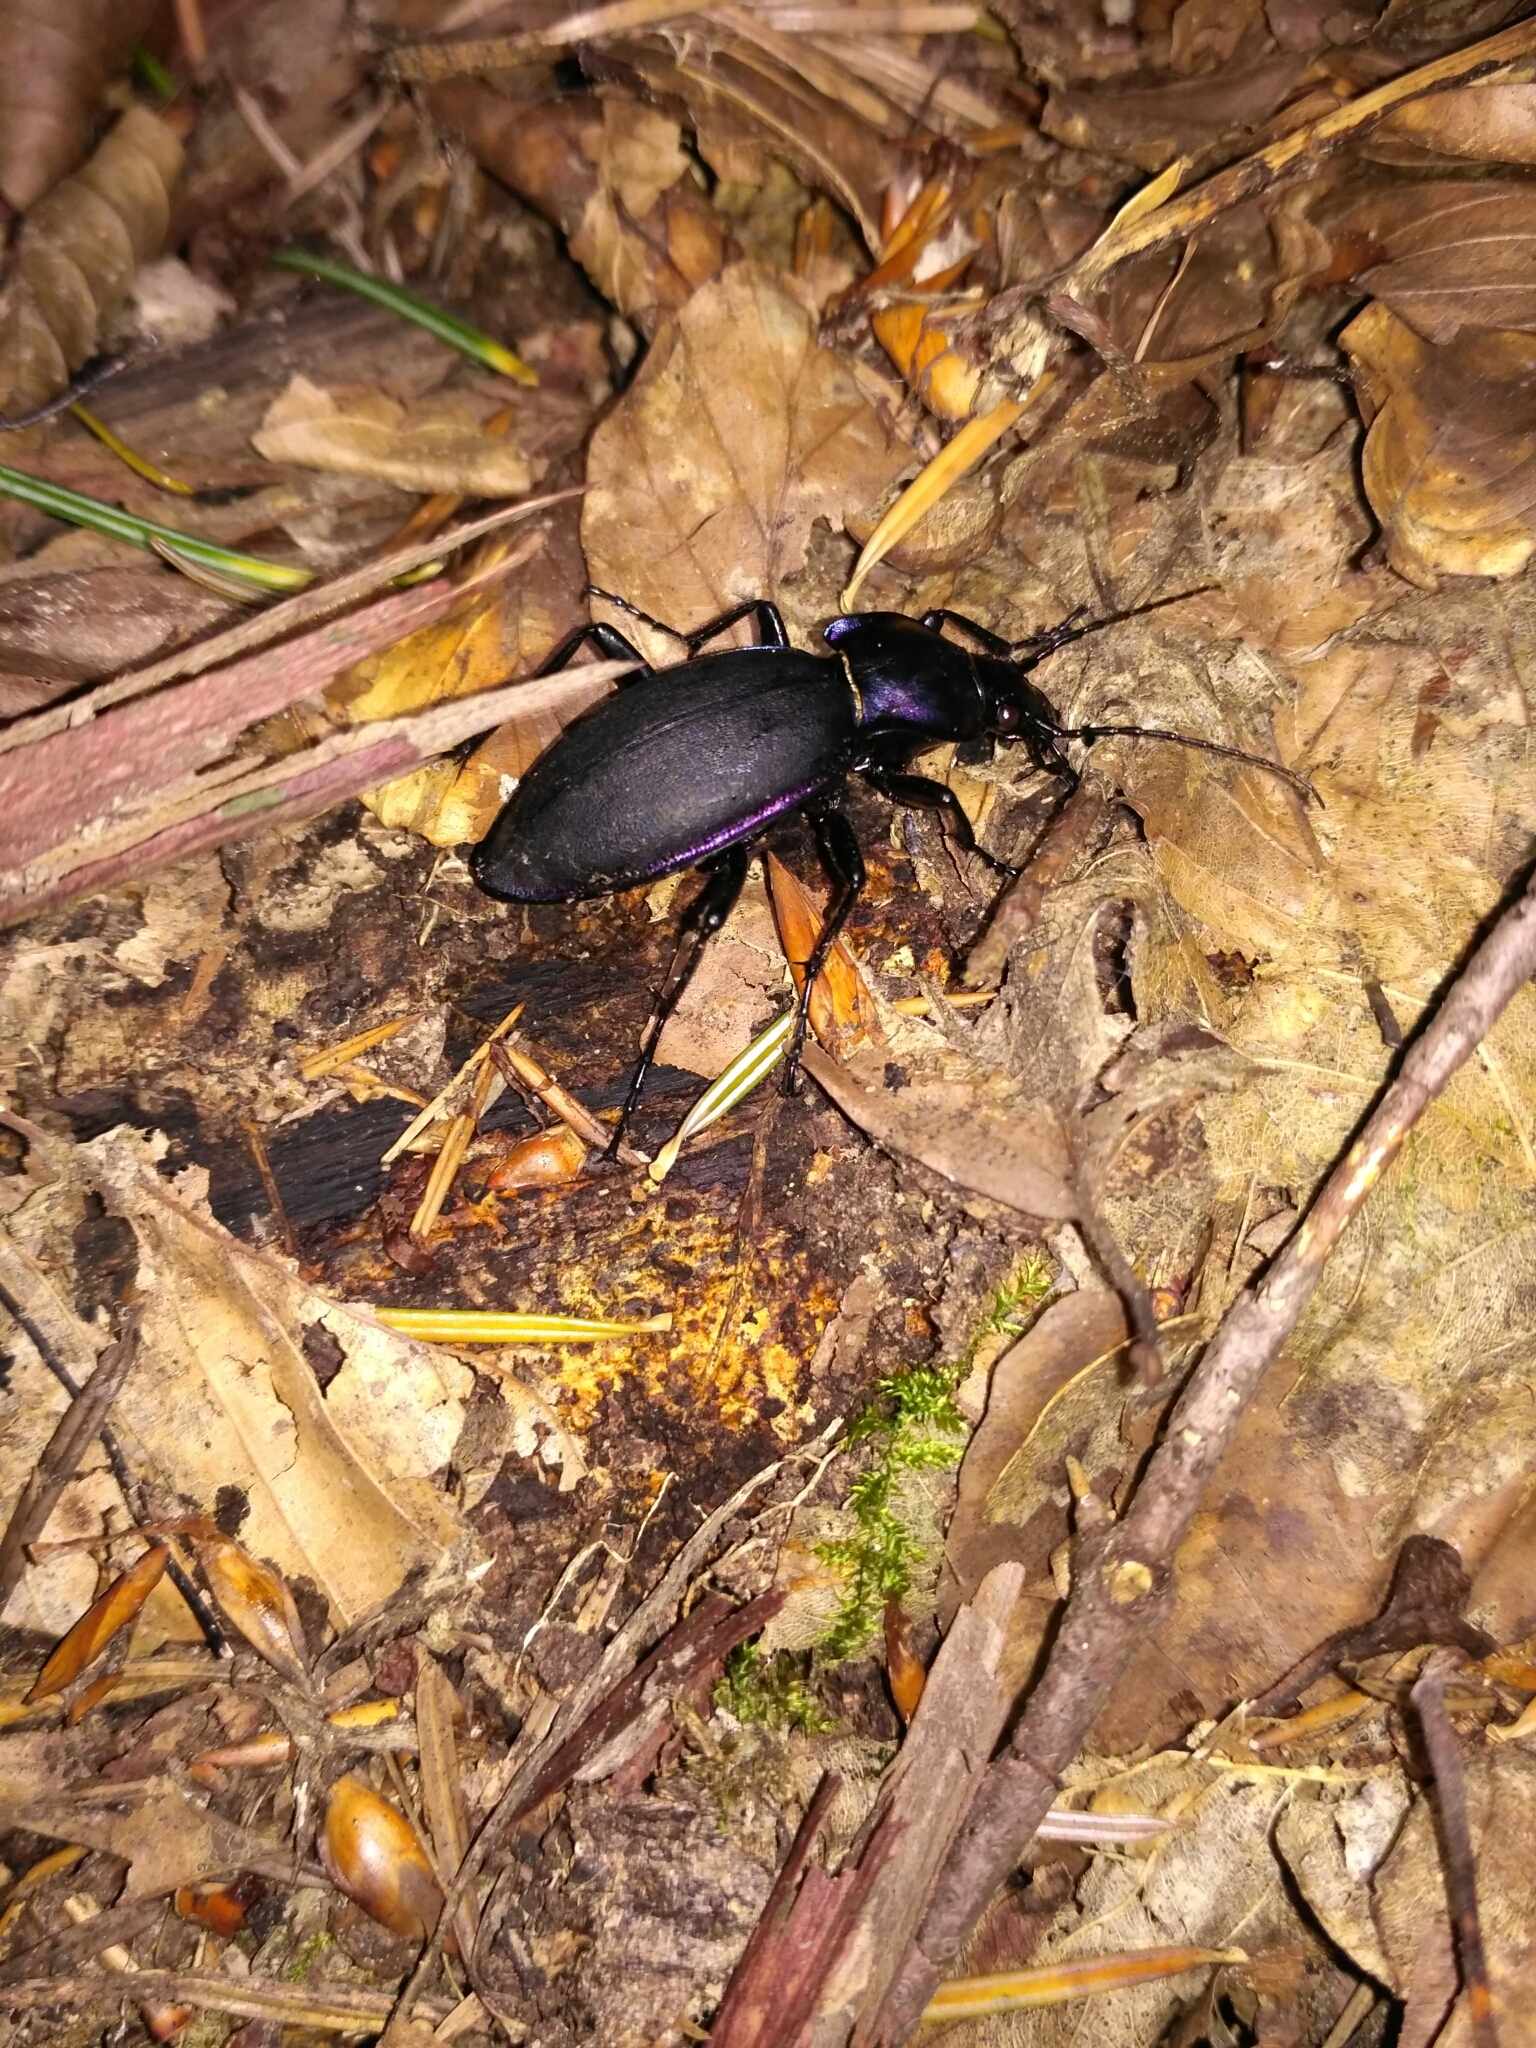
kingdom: Animalia
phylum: Arthropoda
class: Insecta
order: Coleoptera
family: Carabidae
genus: Carabus
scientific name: Carabus violaceus
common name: Violet ground beetle
